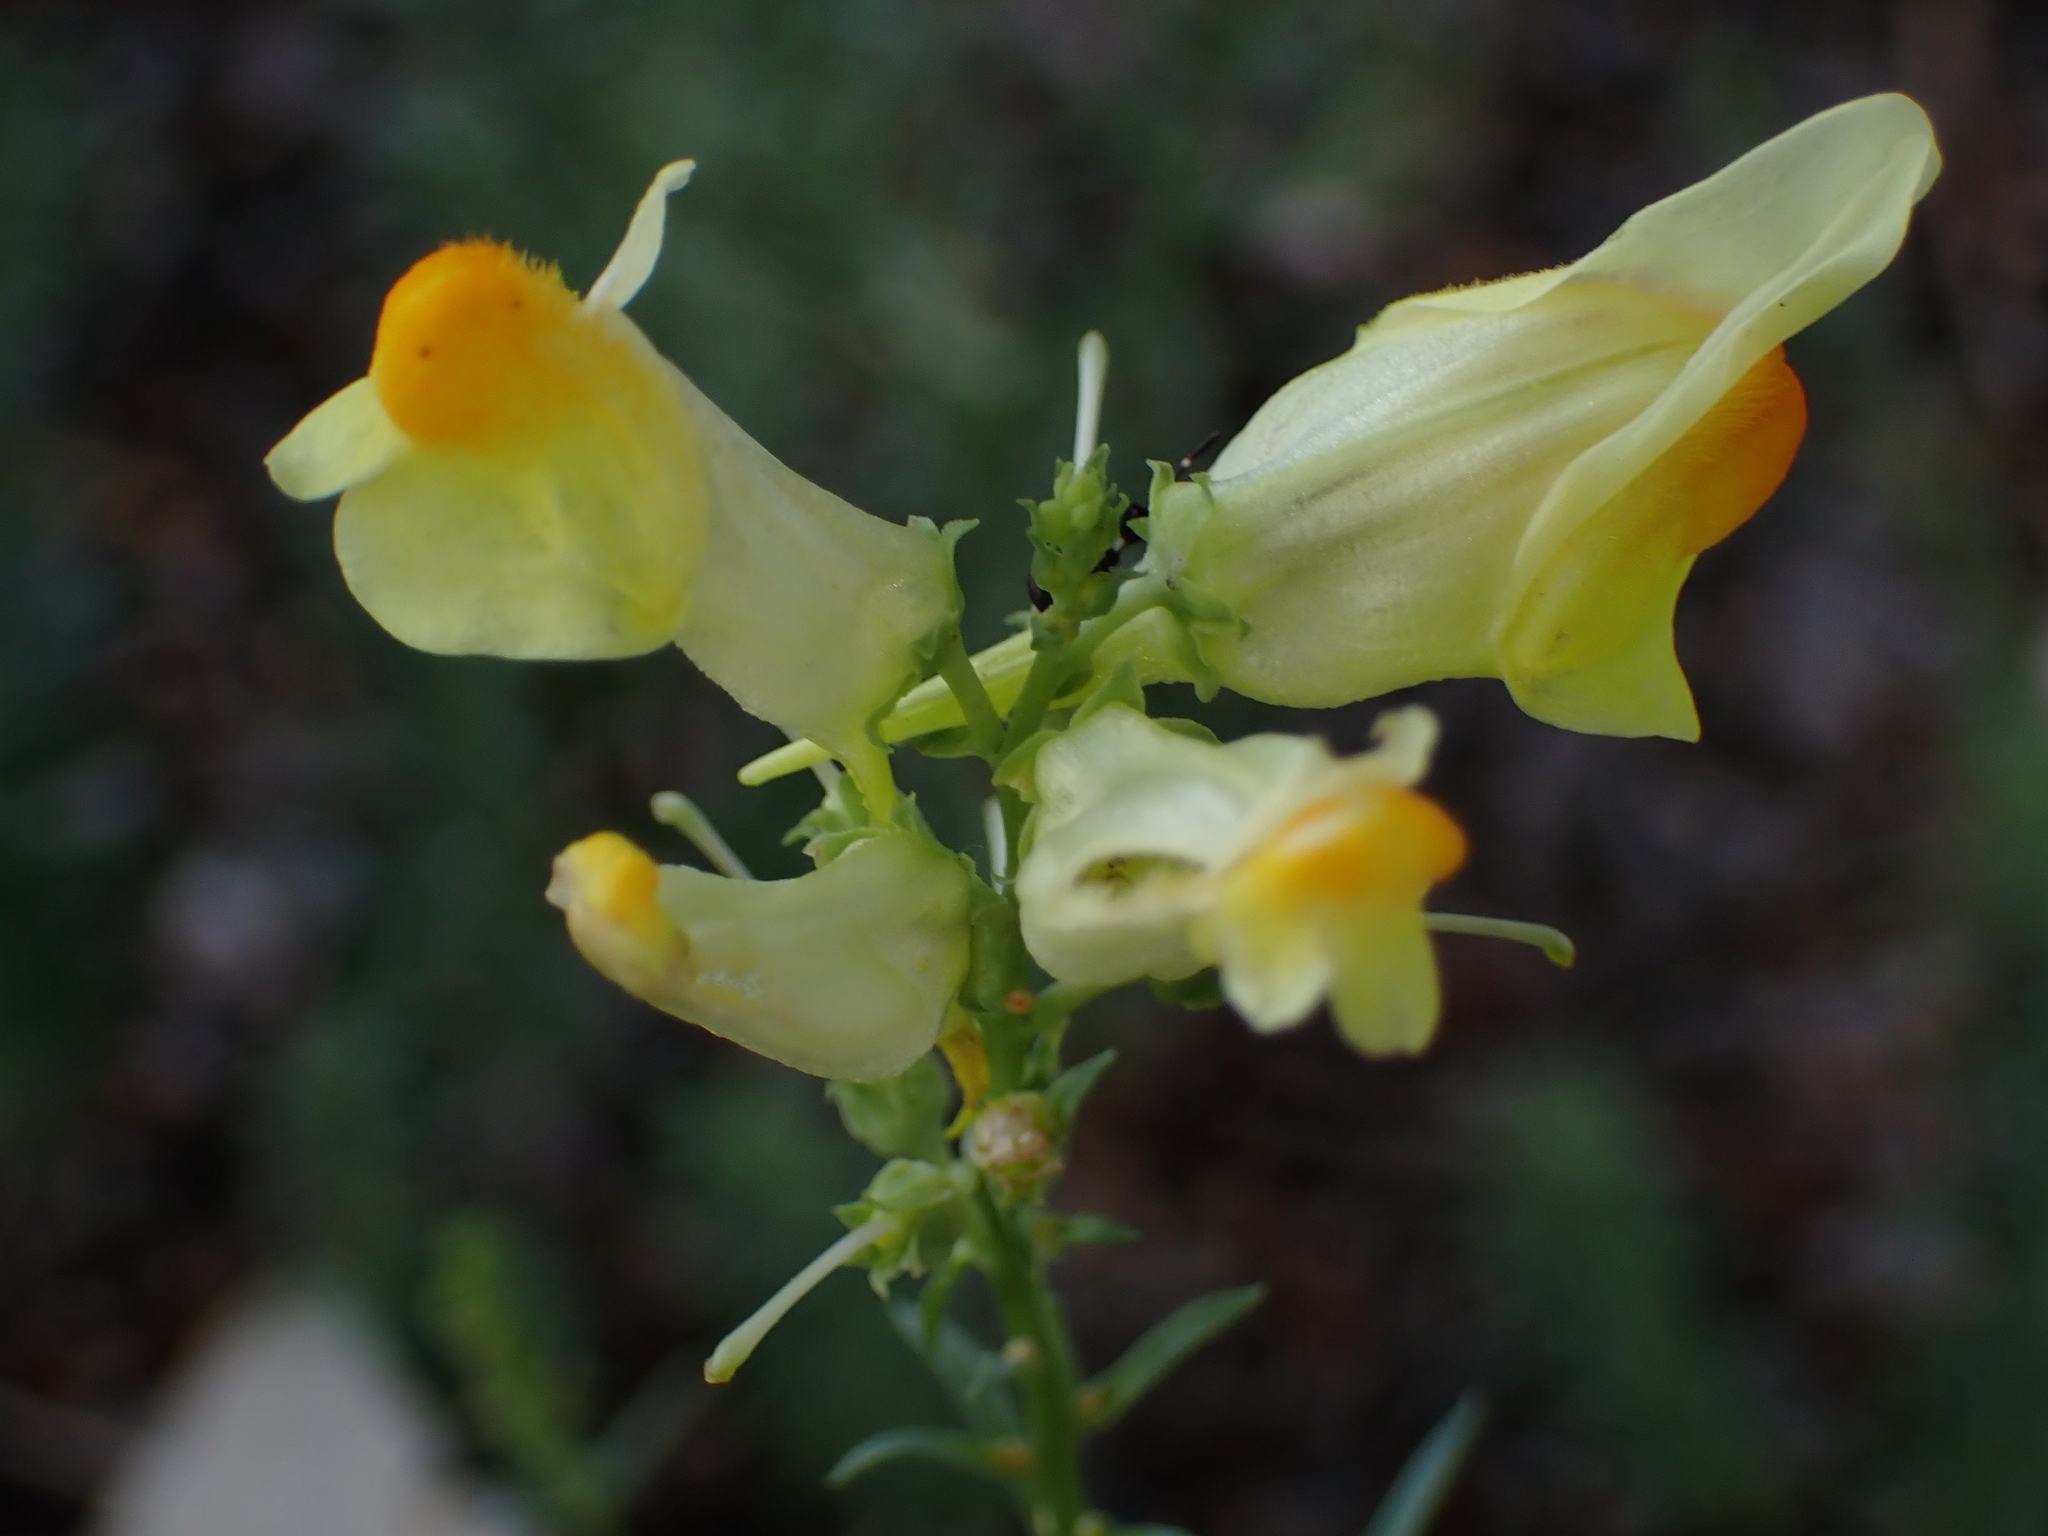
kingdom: Plantae
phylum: Tracheophyta
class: Magnoliopsida
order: Lamiales
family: Plantaginaceae
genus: Linaria
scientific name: Linaria vulgaris
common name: Butter and eggs
